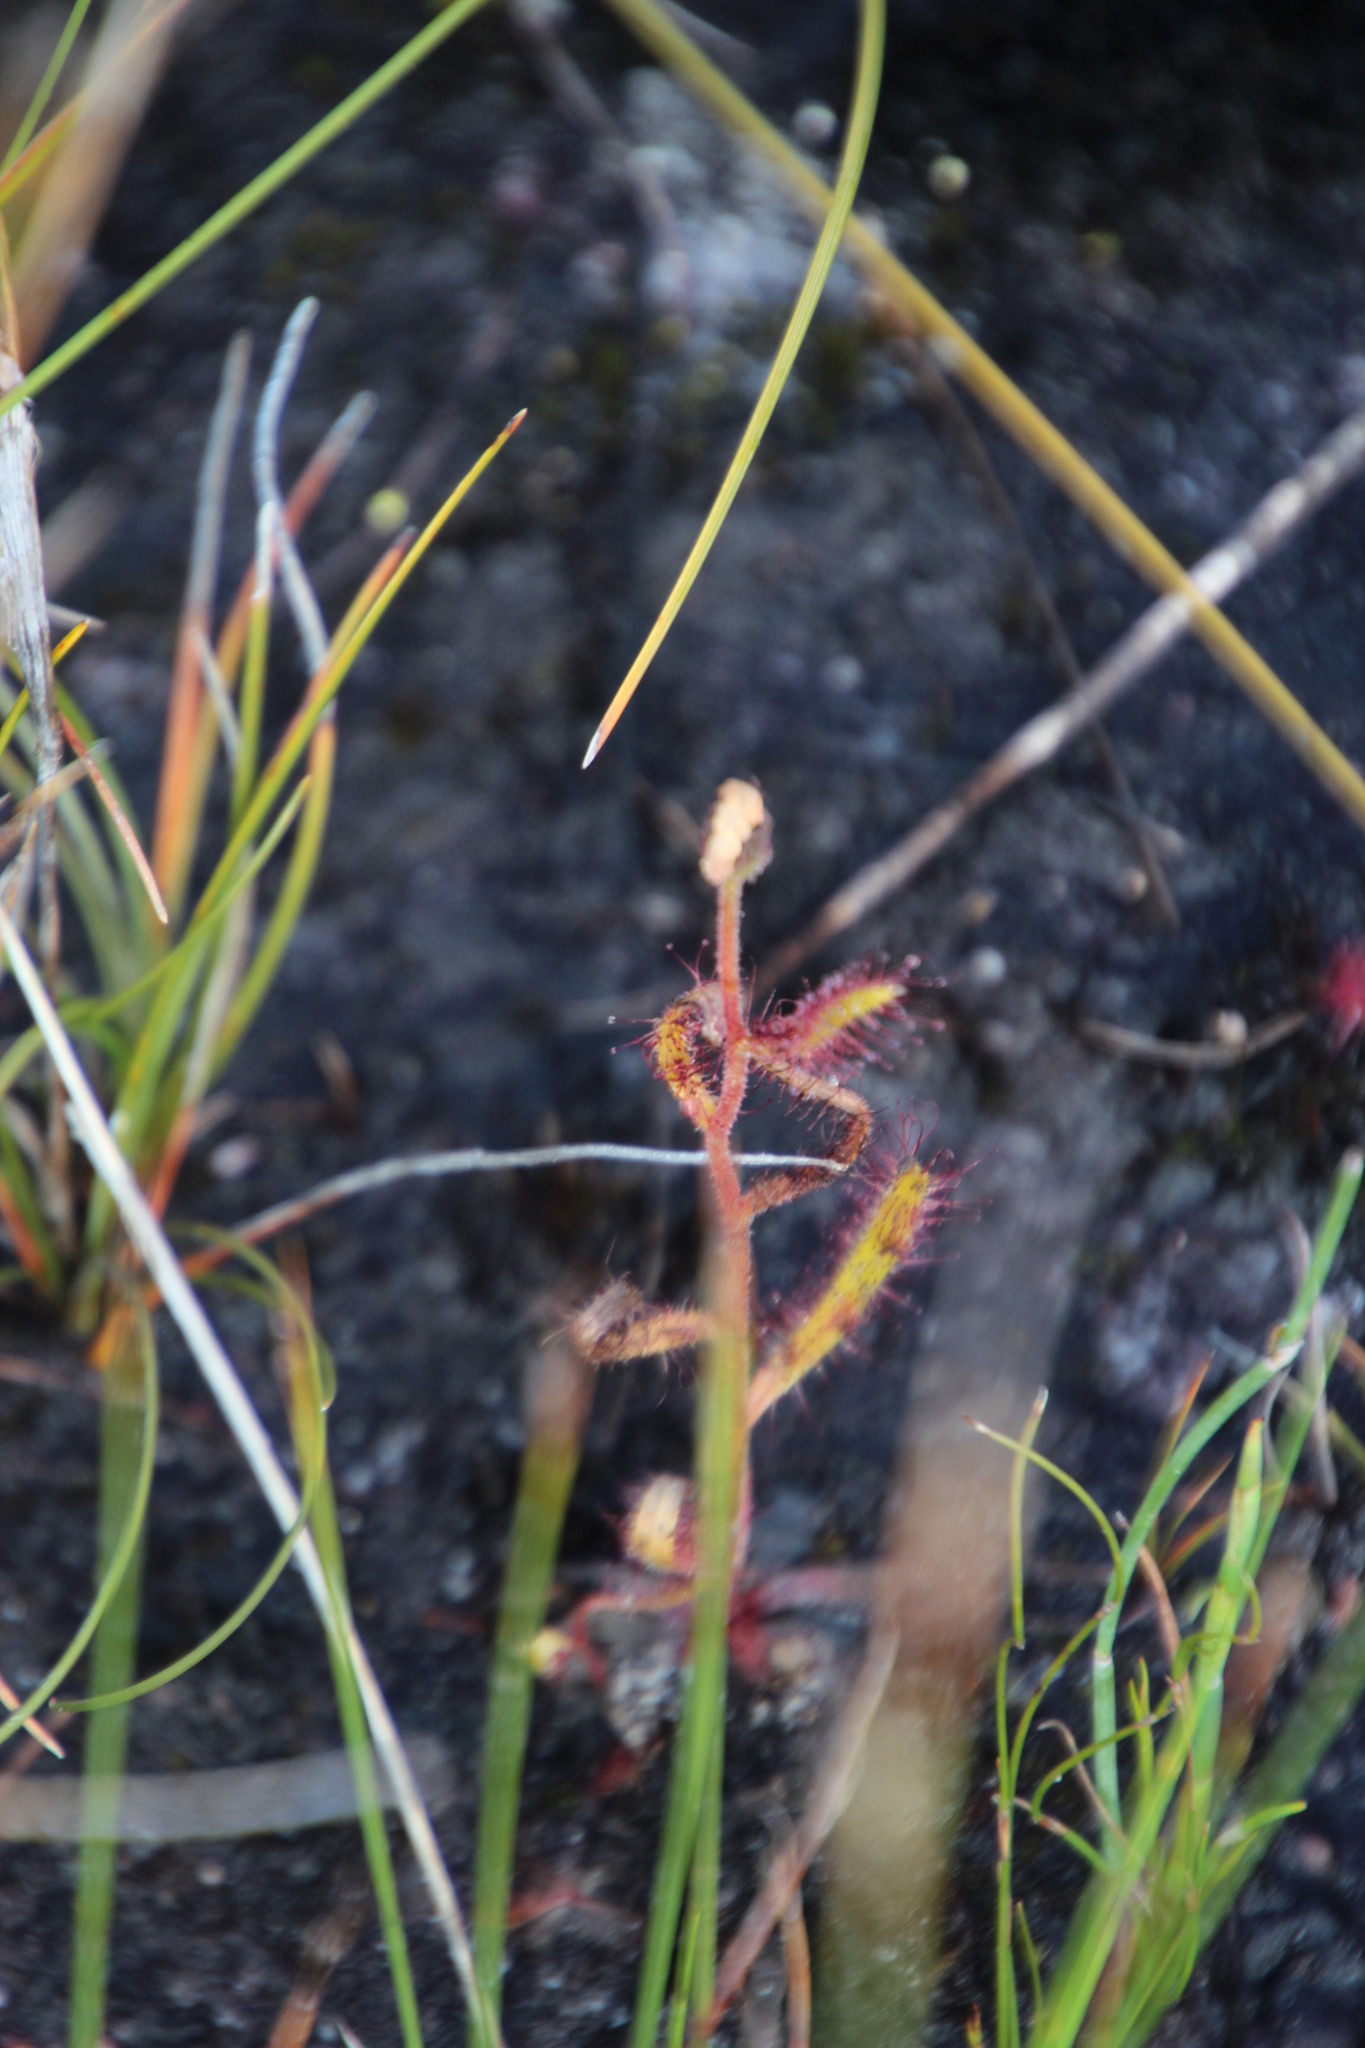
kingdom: Plantae
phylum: Tracheophyta
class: Magnoliopsida
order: Caryophyllales
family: Droseraceae
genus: Drosera
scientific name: Drosera cistiflora
